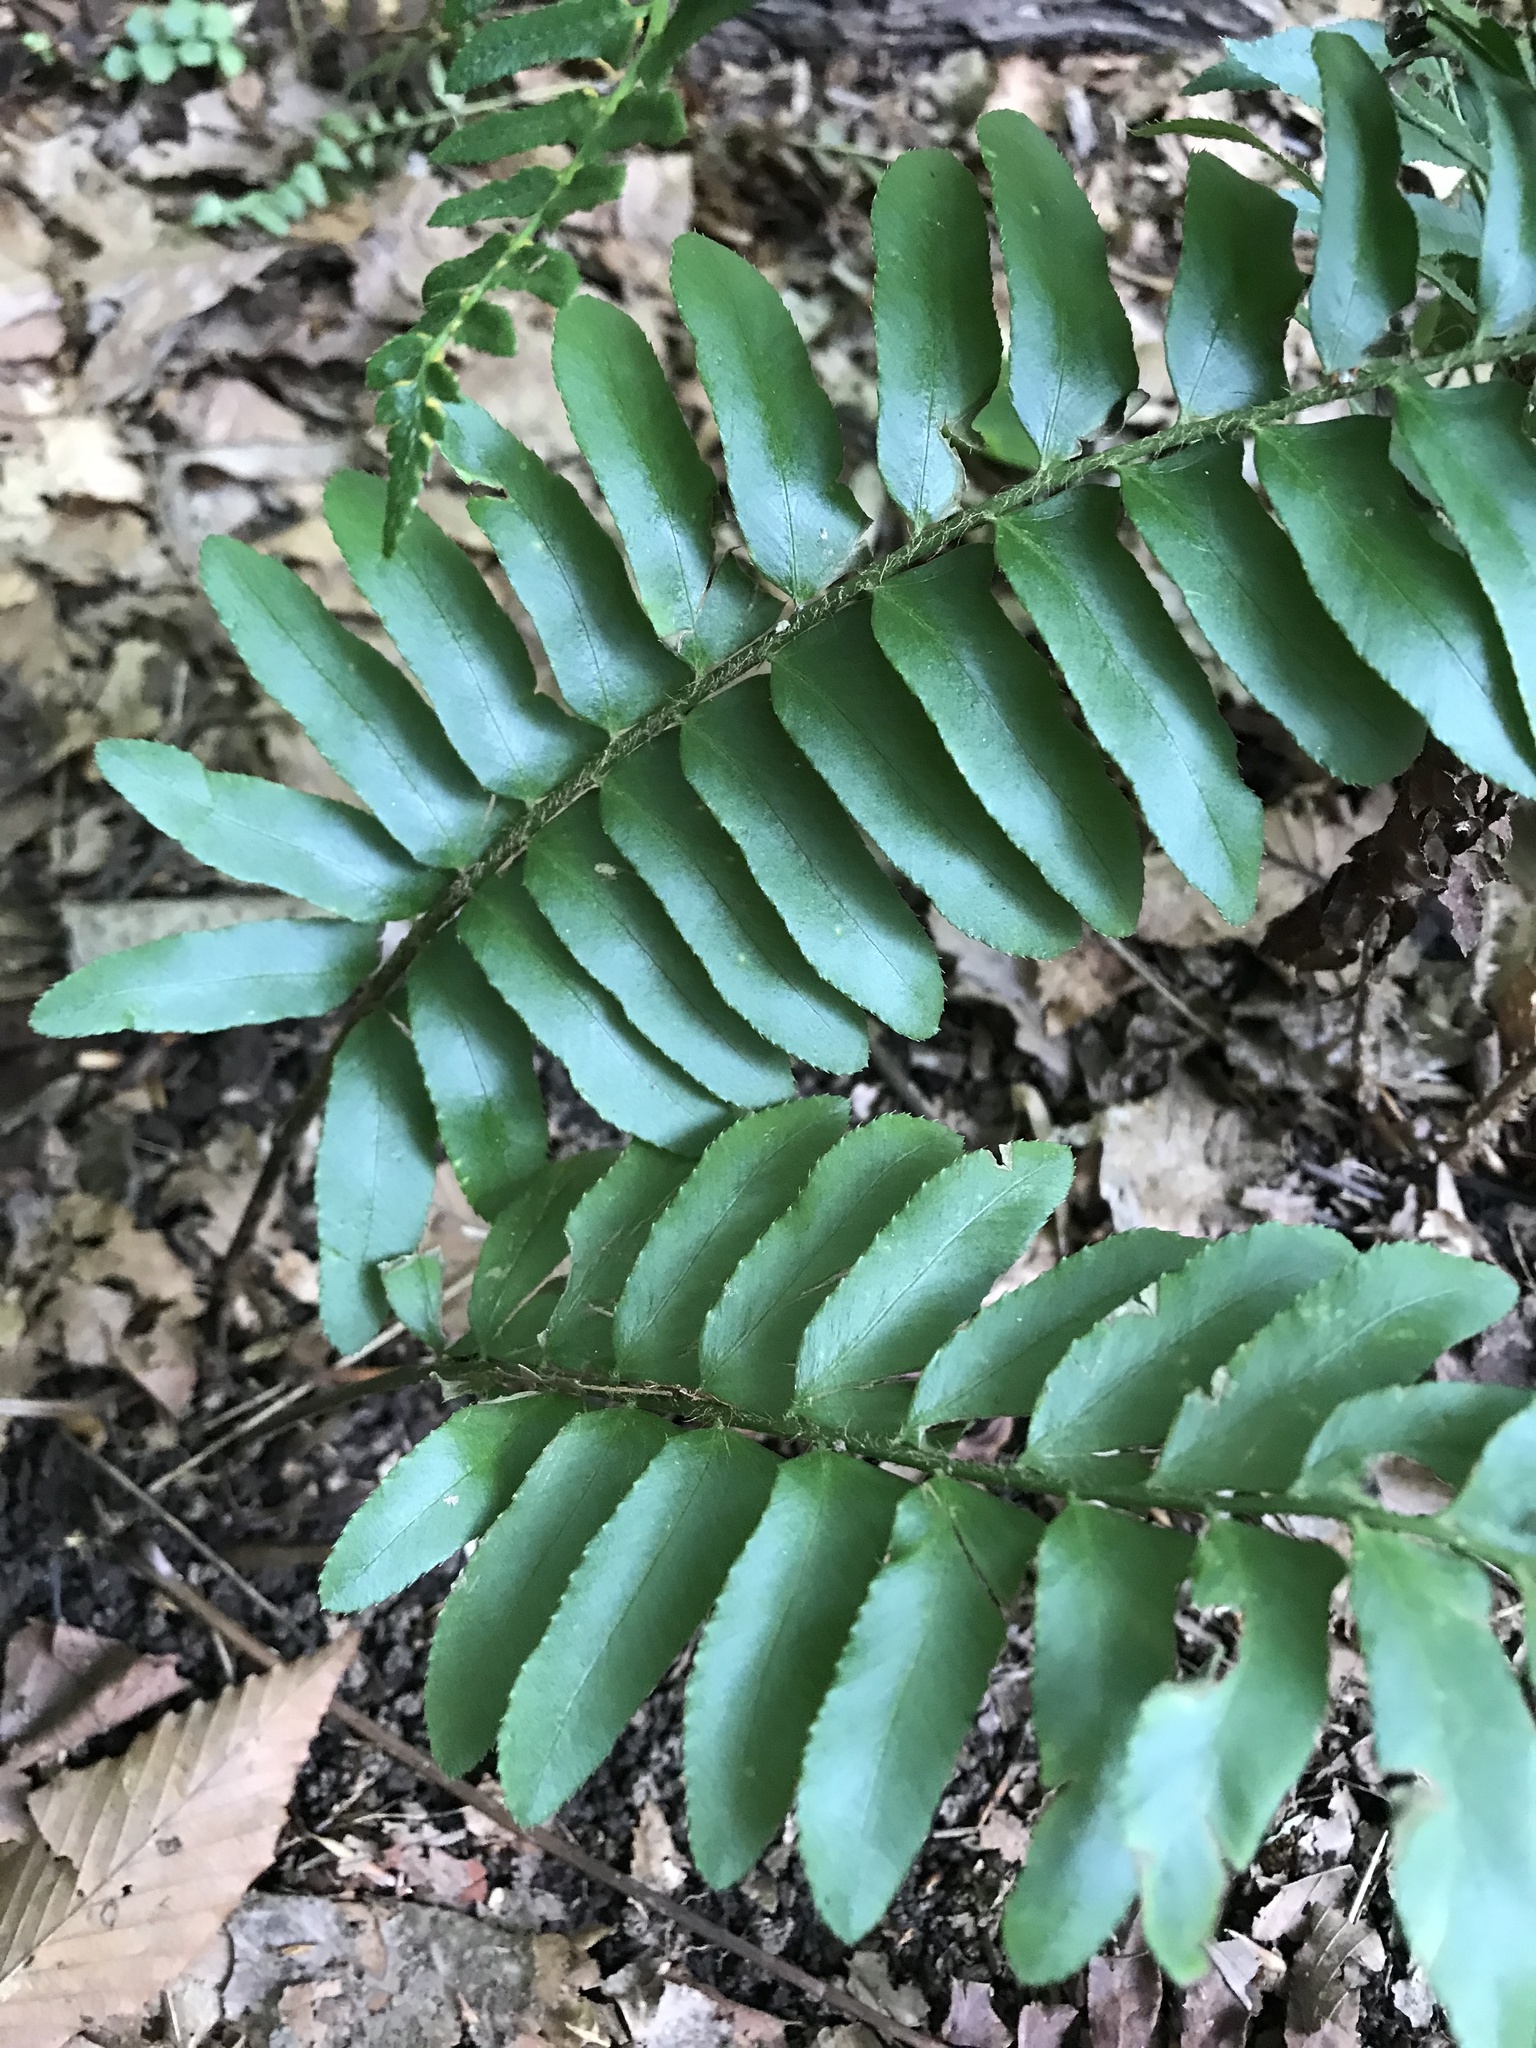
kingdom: Plantae
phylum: Tracheophyta
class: Polypodiopsida
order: Polypodiales
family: Dryopteridaceae
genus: Polystichum
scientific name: Polystichum acrostichoides
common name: Christmas fern
